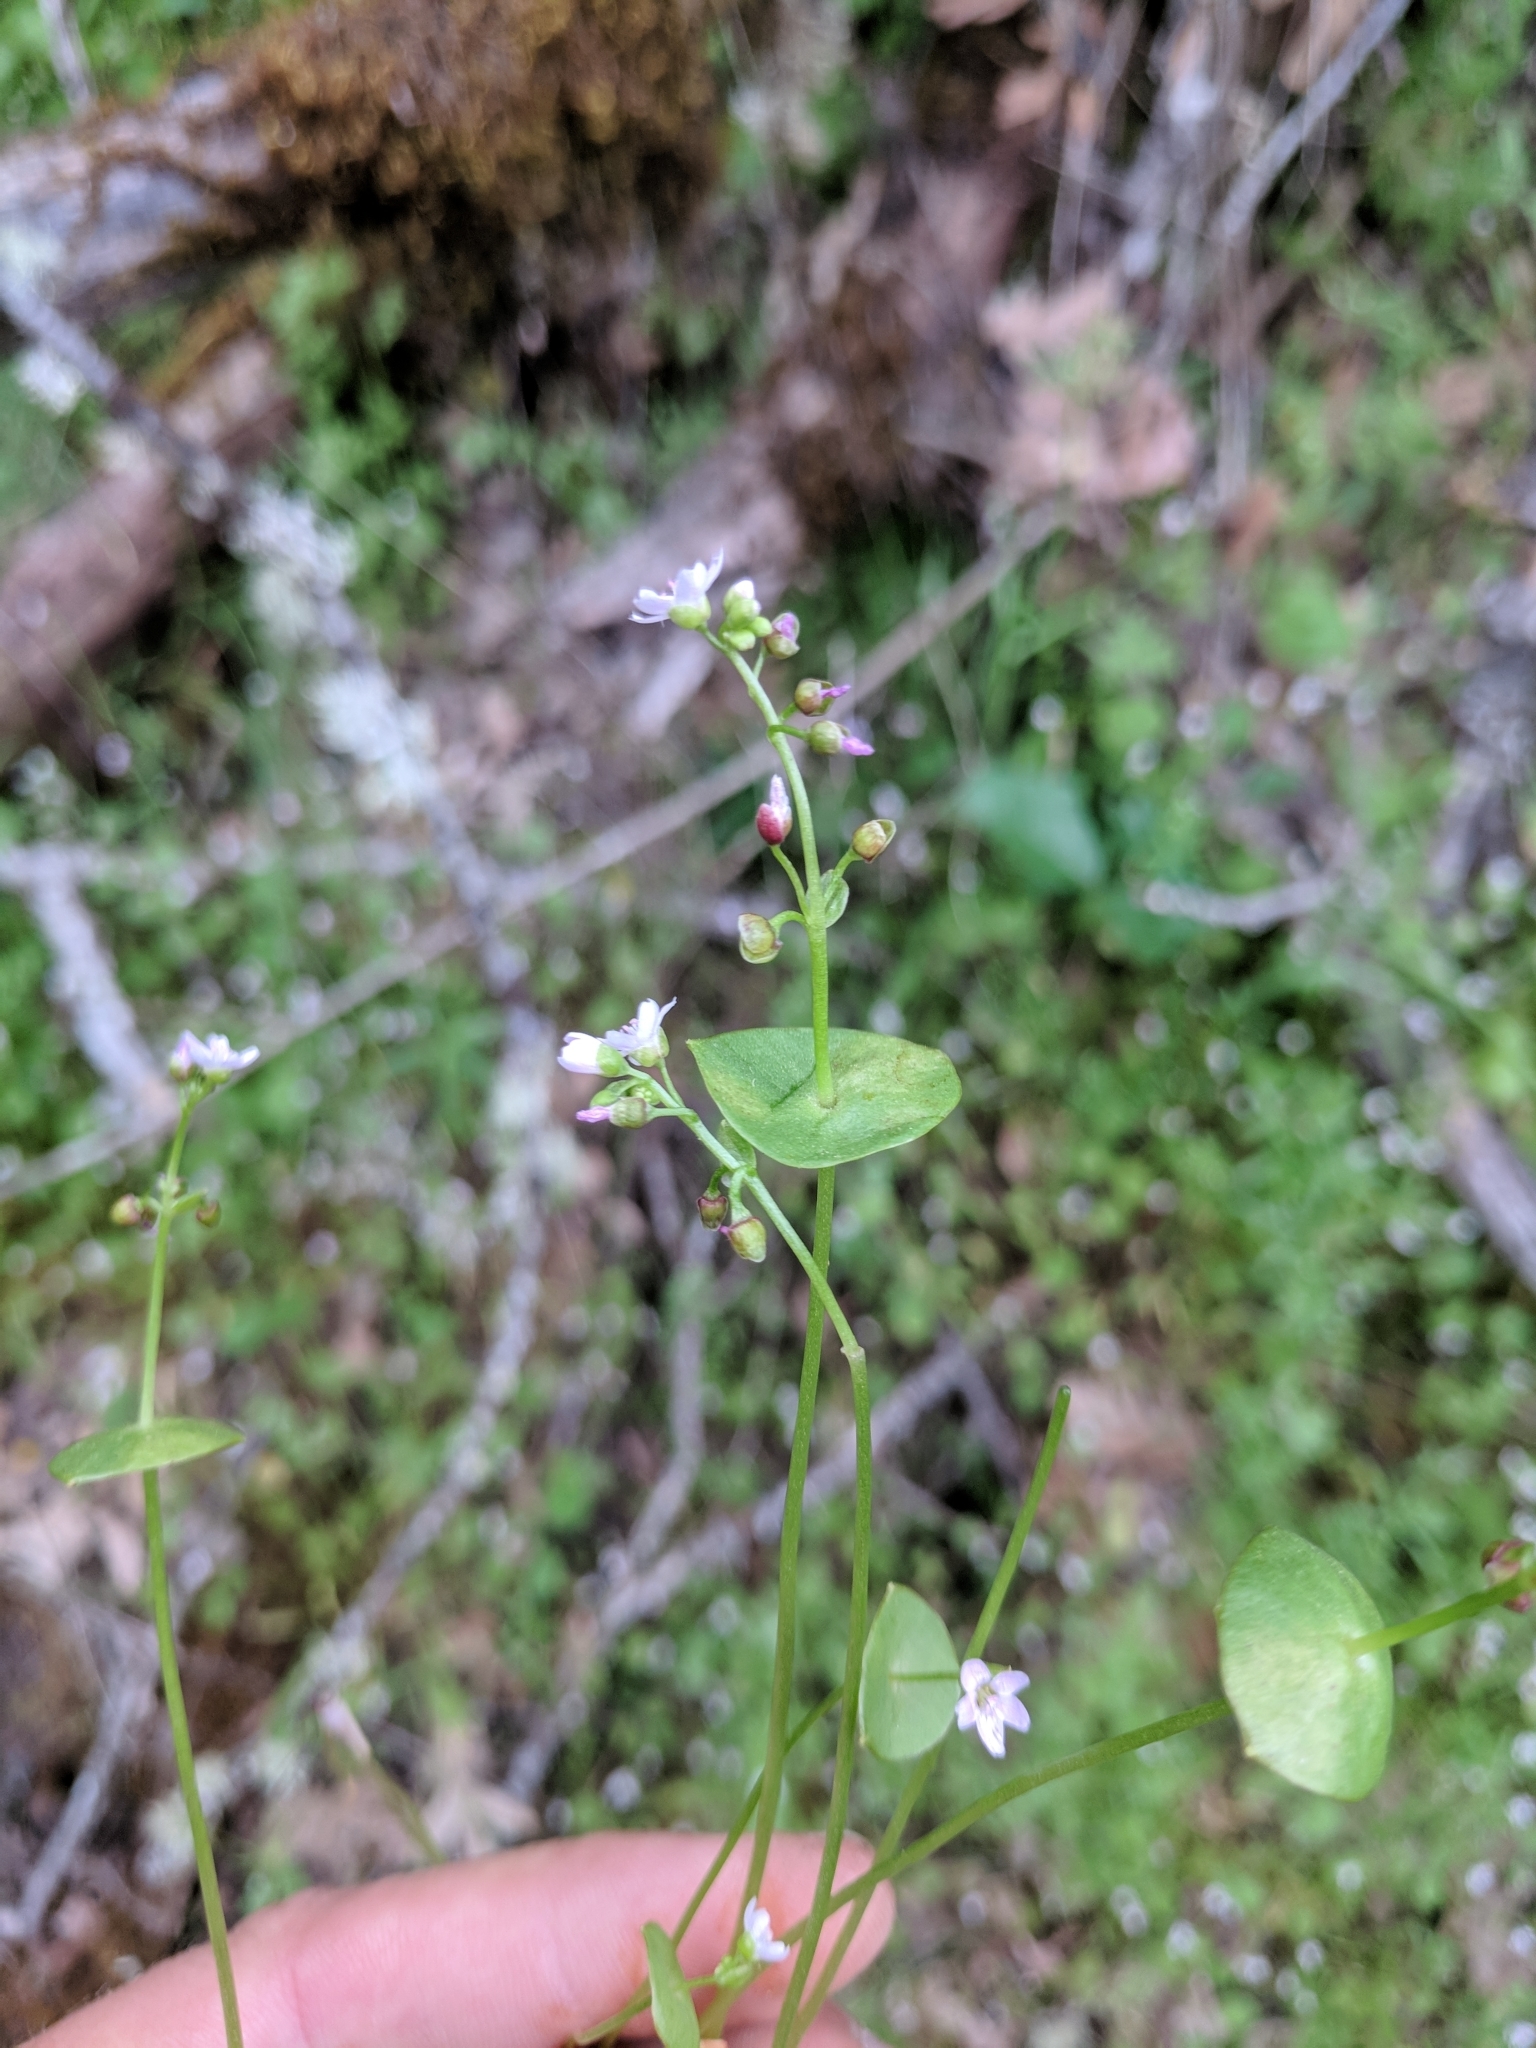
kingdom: Plantae
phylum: Tracheophyta
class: Magnoliopsida
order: Caryophyllales
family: Montiaceae
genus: Claytonia
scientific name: Claytonia parviflora
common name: Indian-lettuce
